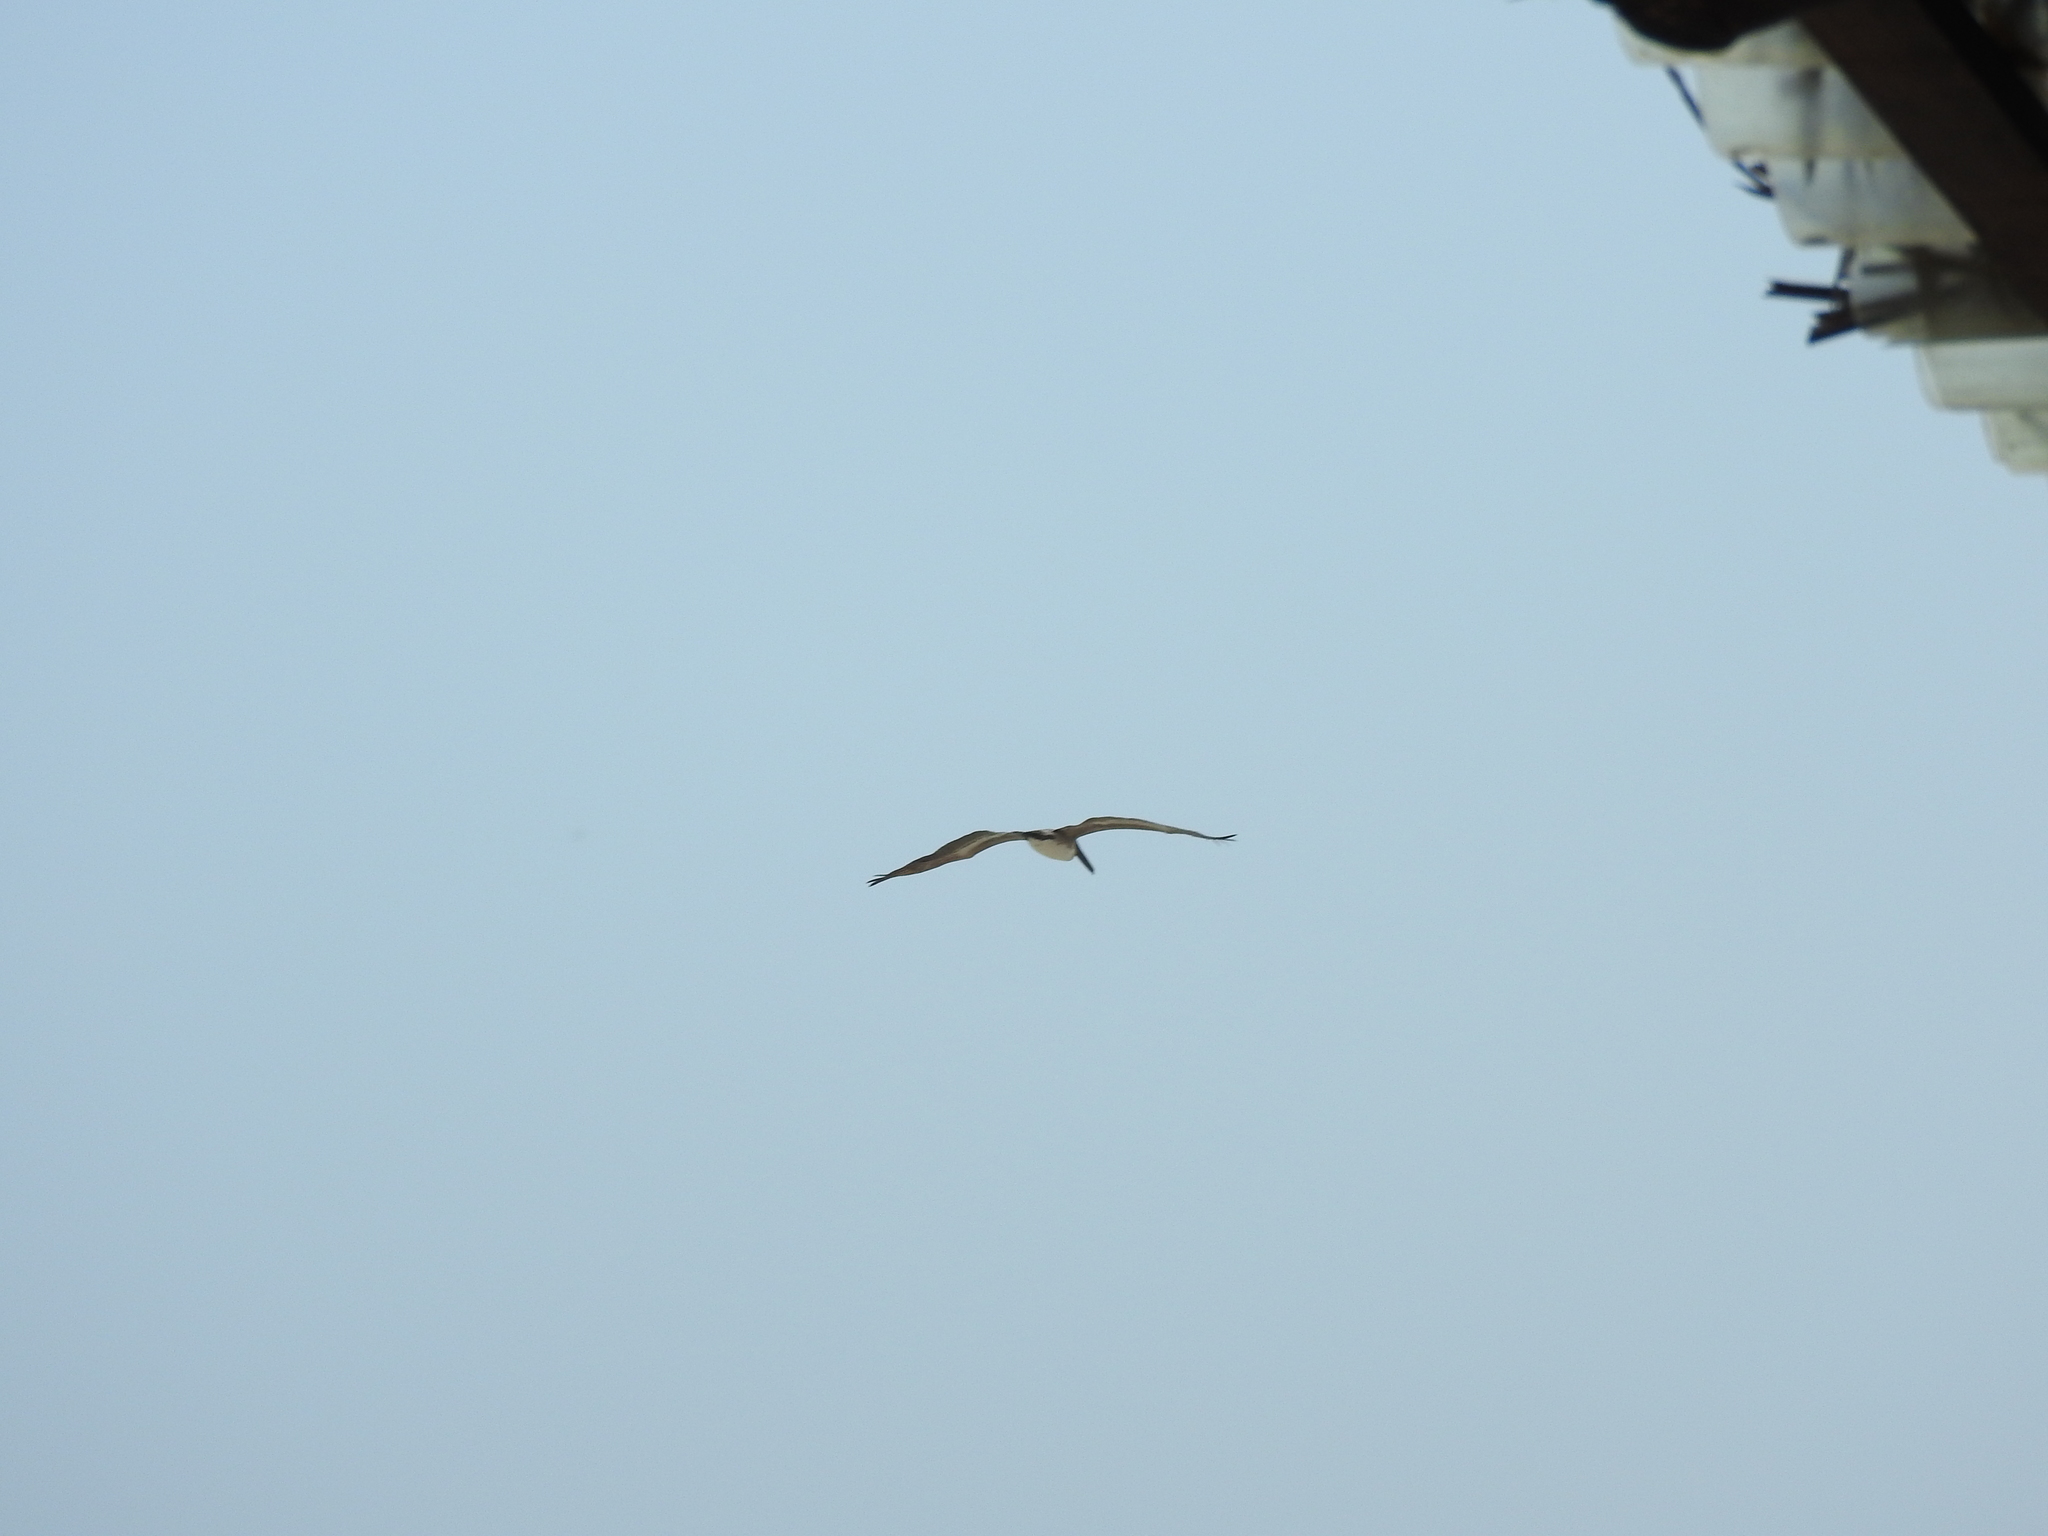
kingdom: Animalia
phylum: Chordata
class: Aves
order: Pelecaniformes
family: Pelecanidae
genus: Pelecanus
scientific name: Pelecanus occidentalis
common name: Brown pelican
